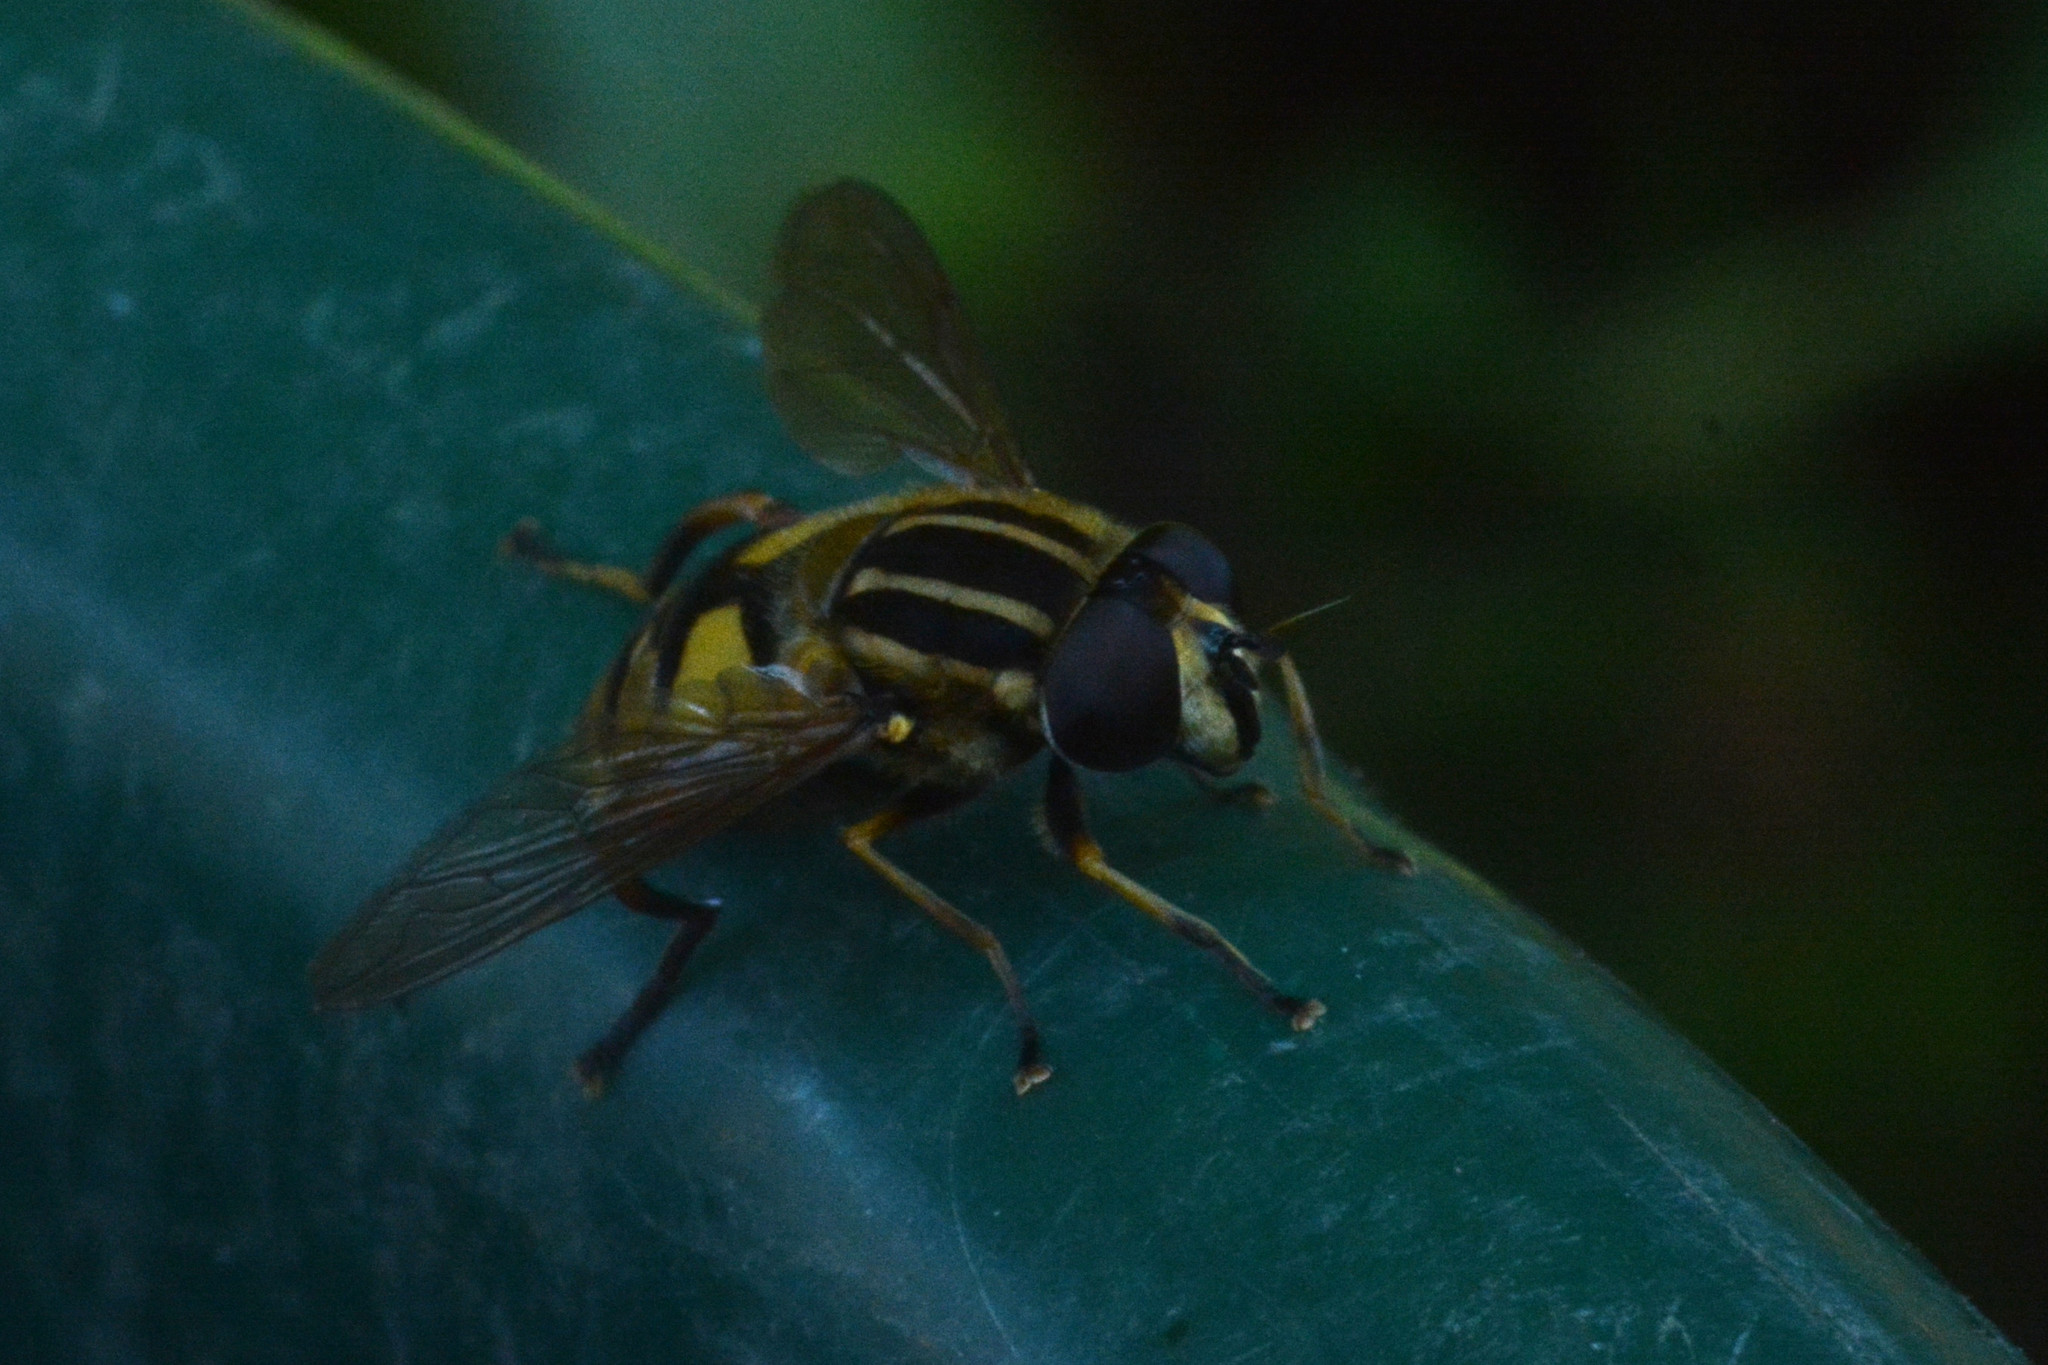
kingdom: Animalia
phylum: Arthropoda
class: Insecta
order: Diptera
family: Syrphidae
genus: Helophilus
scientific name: Helophilus pendulus
